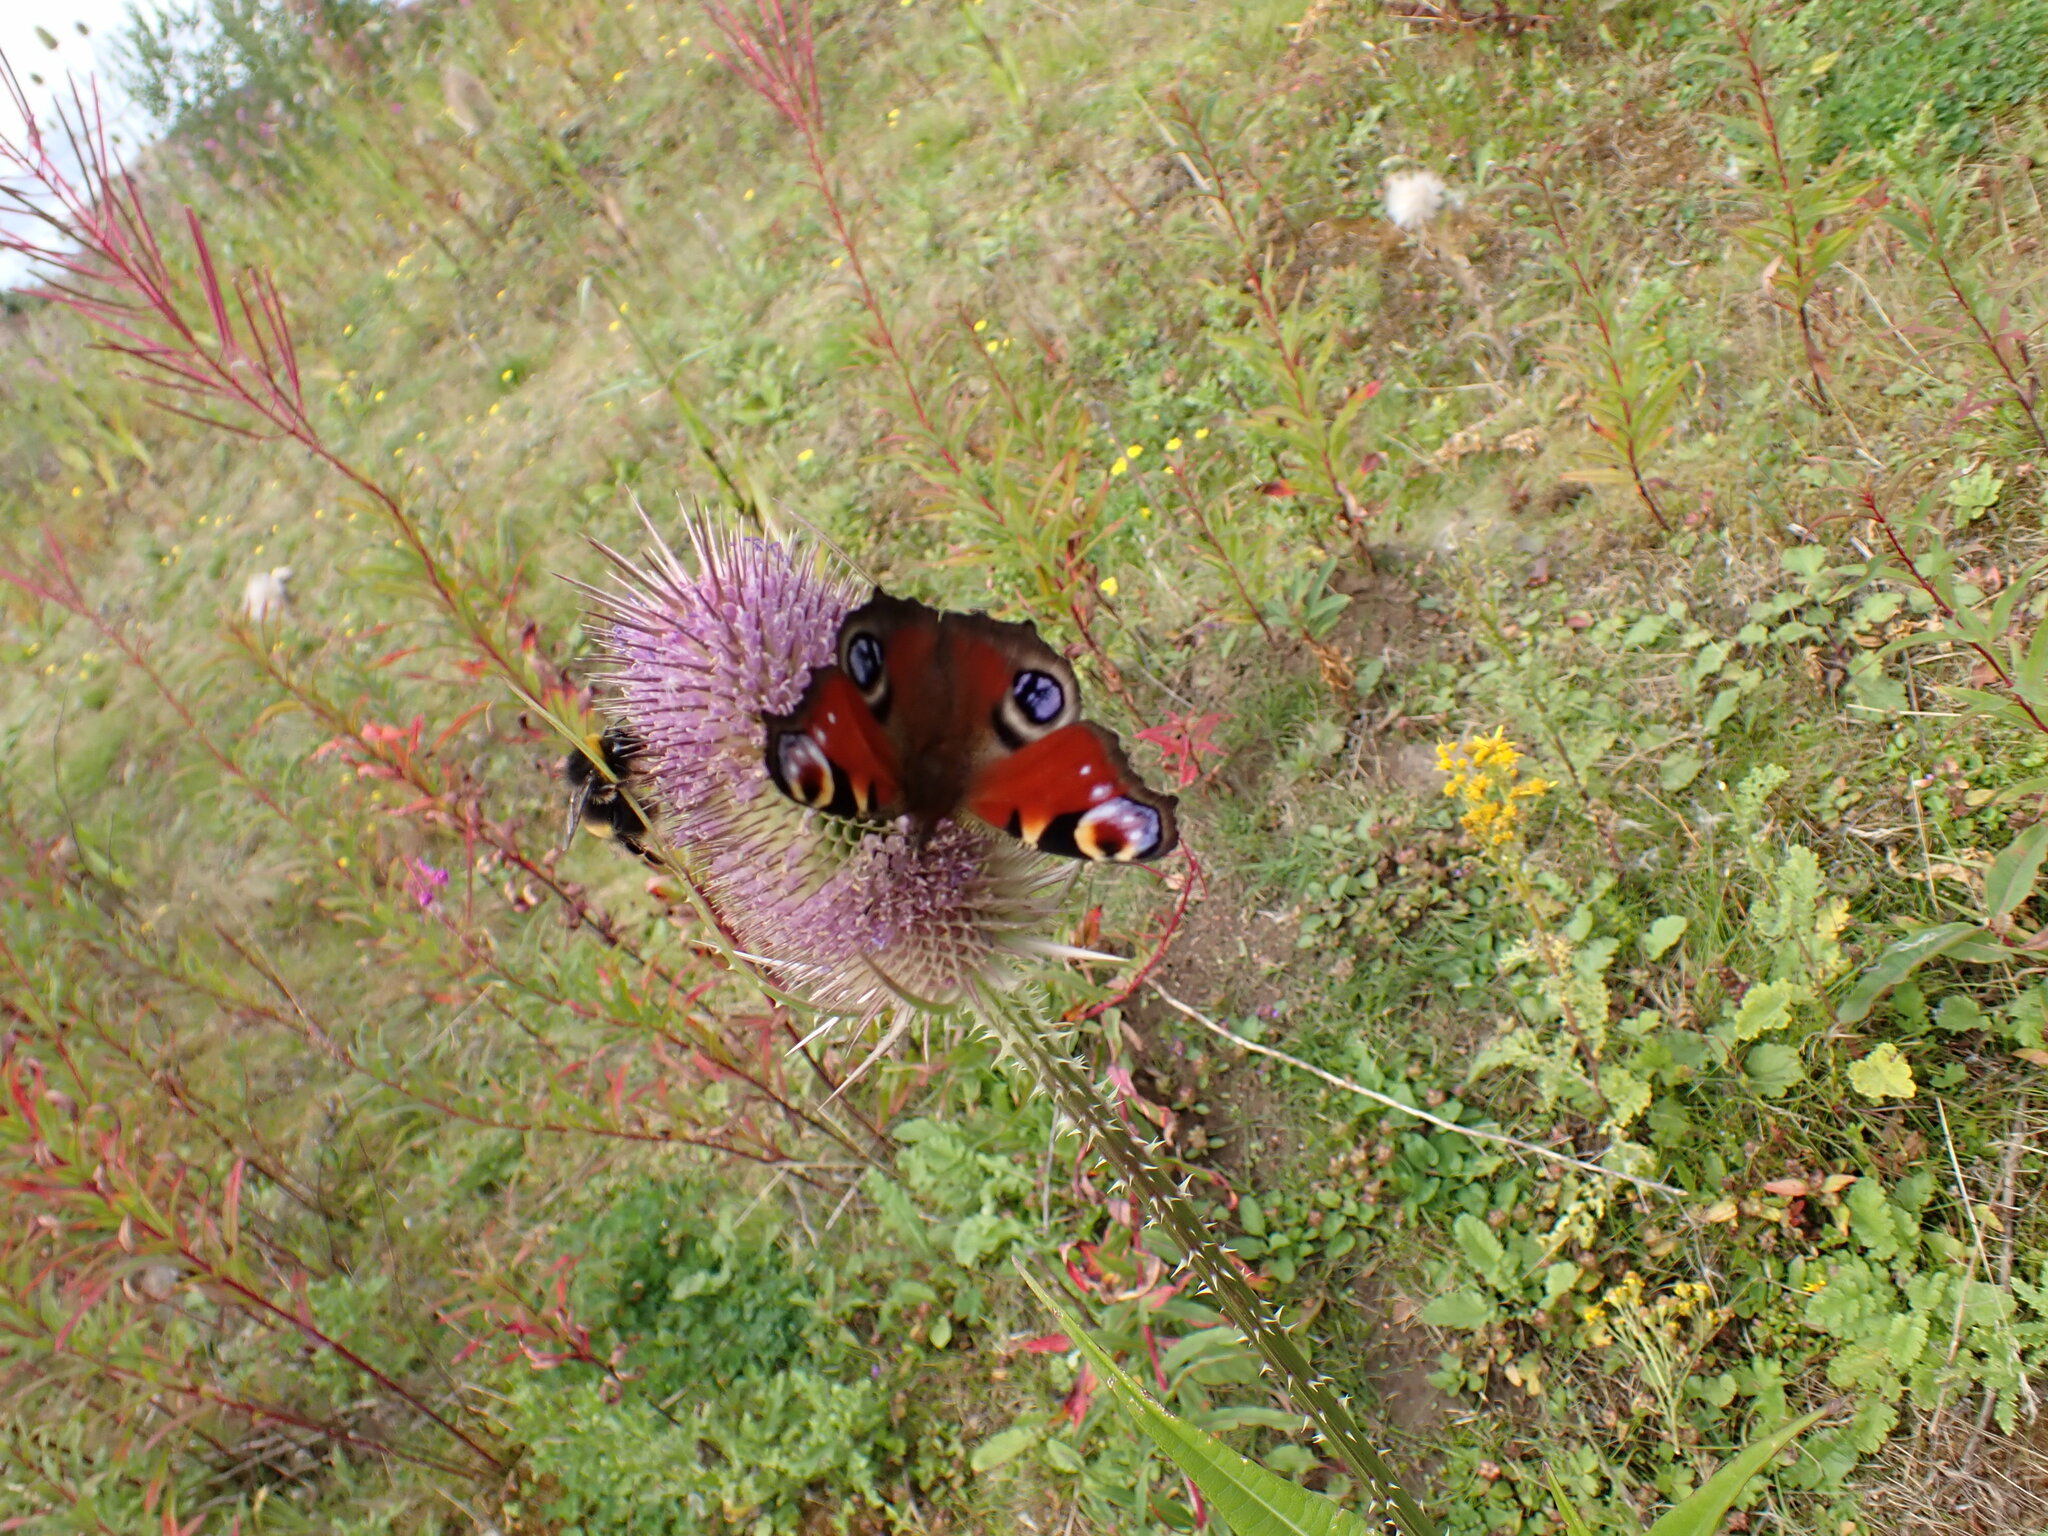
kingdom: Animalia
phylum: Arthropoda
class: Insecta
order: Lepidoptera
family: Nymphalidae
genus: Aglais
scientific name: Aglais io
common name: Peacock
